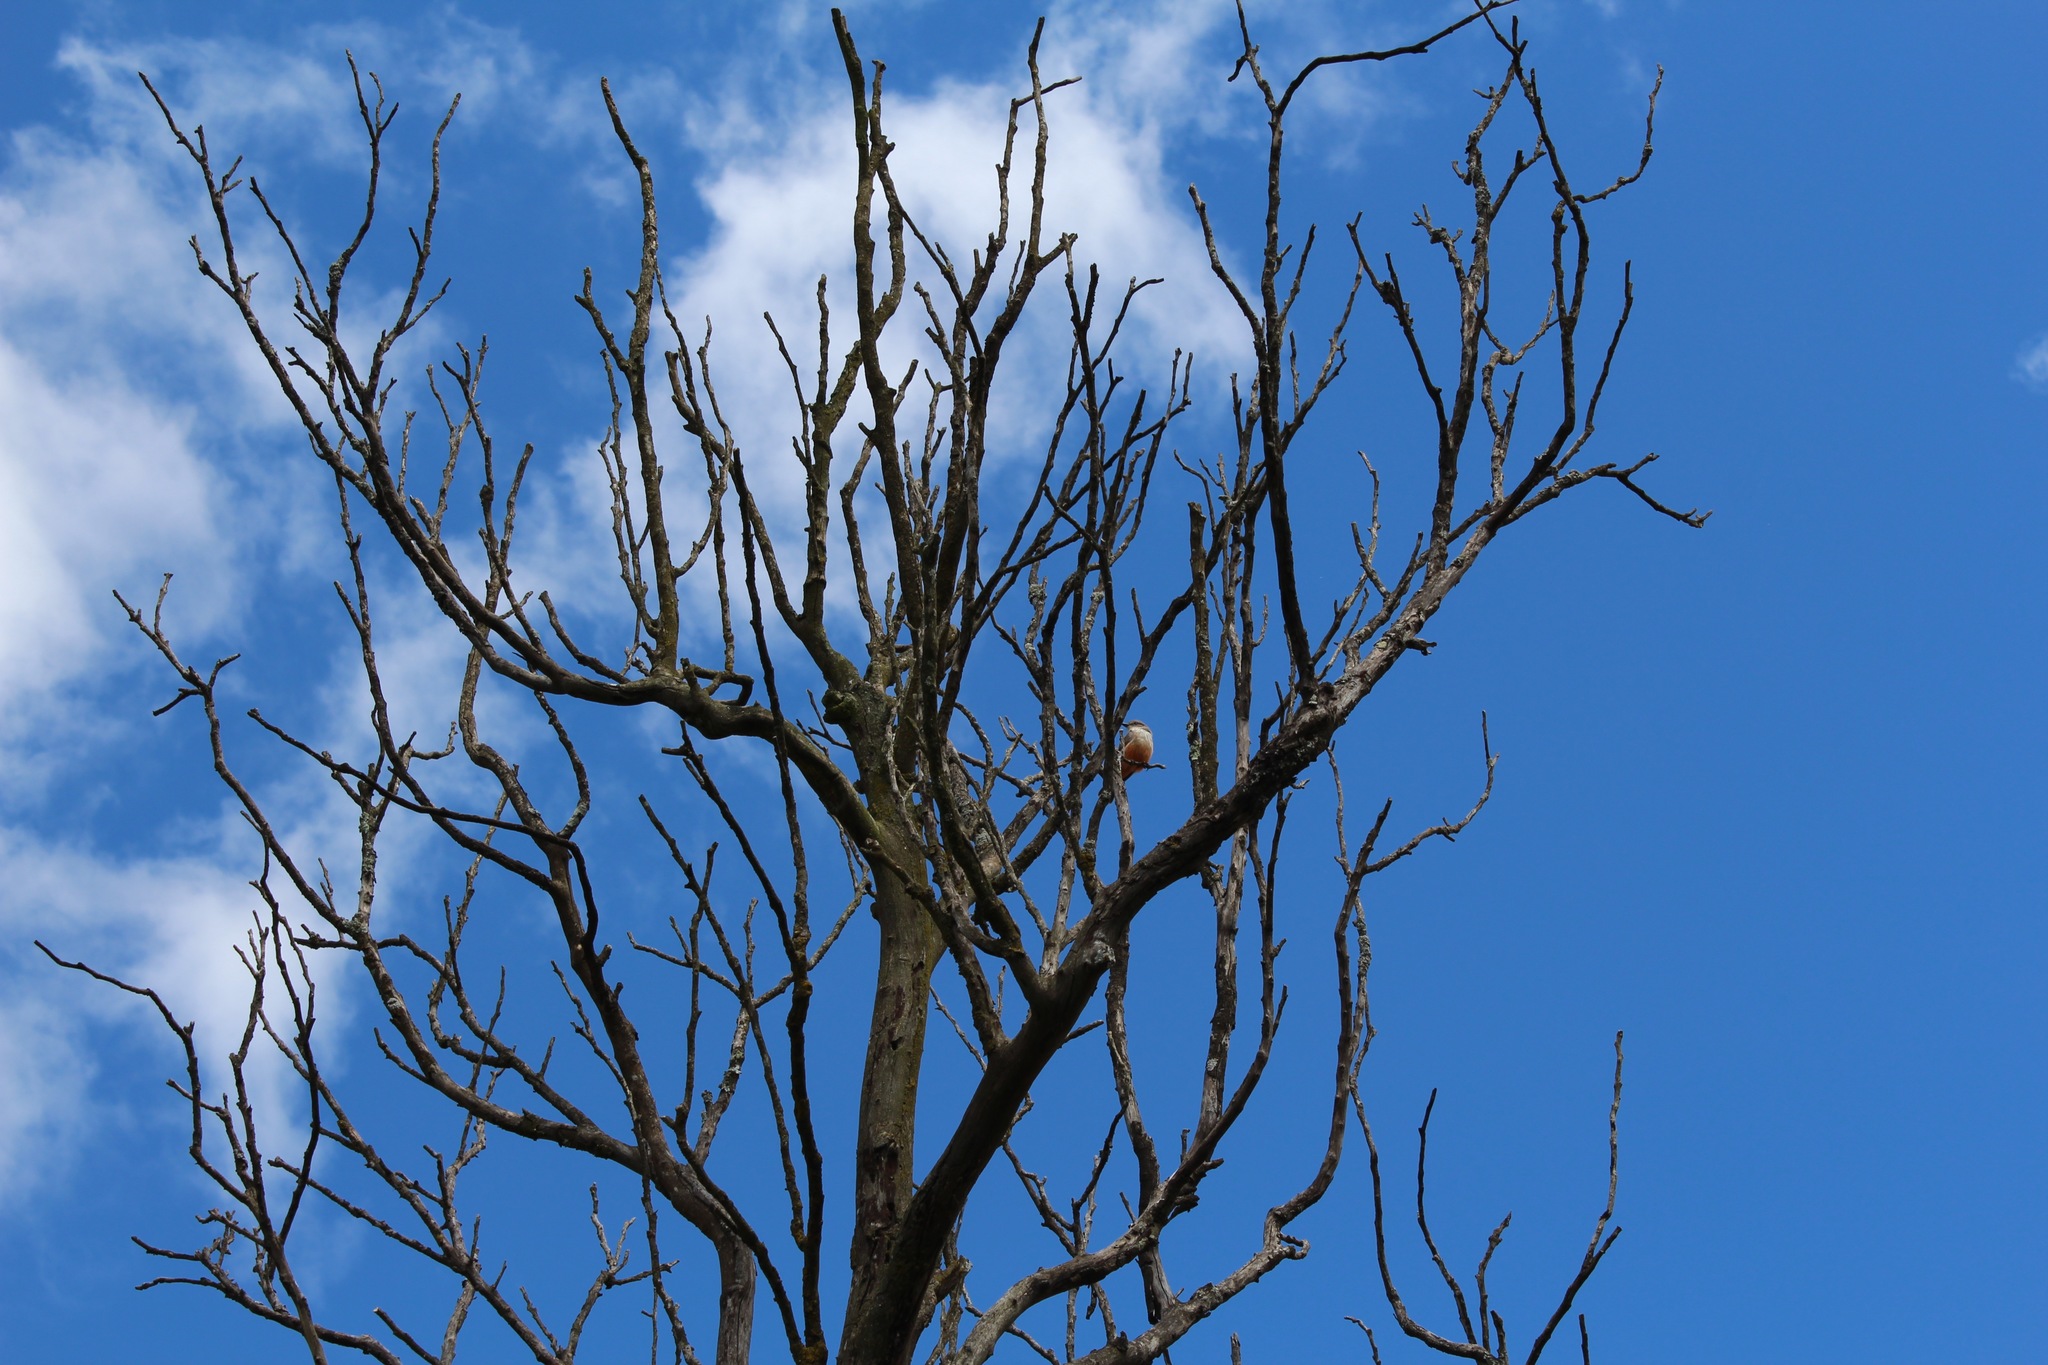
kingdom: Animalia
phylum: Chordata
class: Aves
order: Passeriformes
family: Tyrannidae
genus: Pyrocephalus
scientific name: Pyrocephalus rubinus
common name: Vermilion flycatcher
